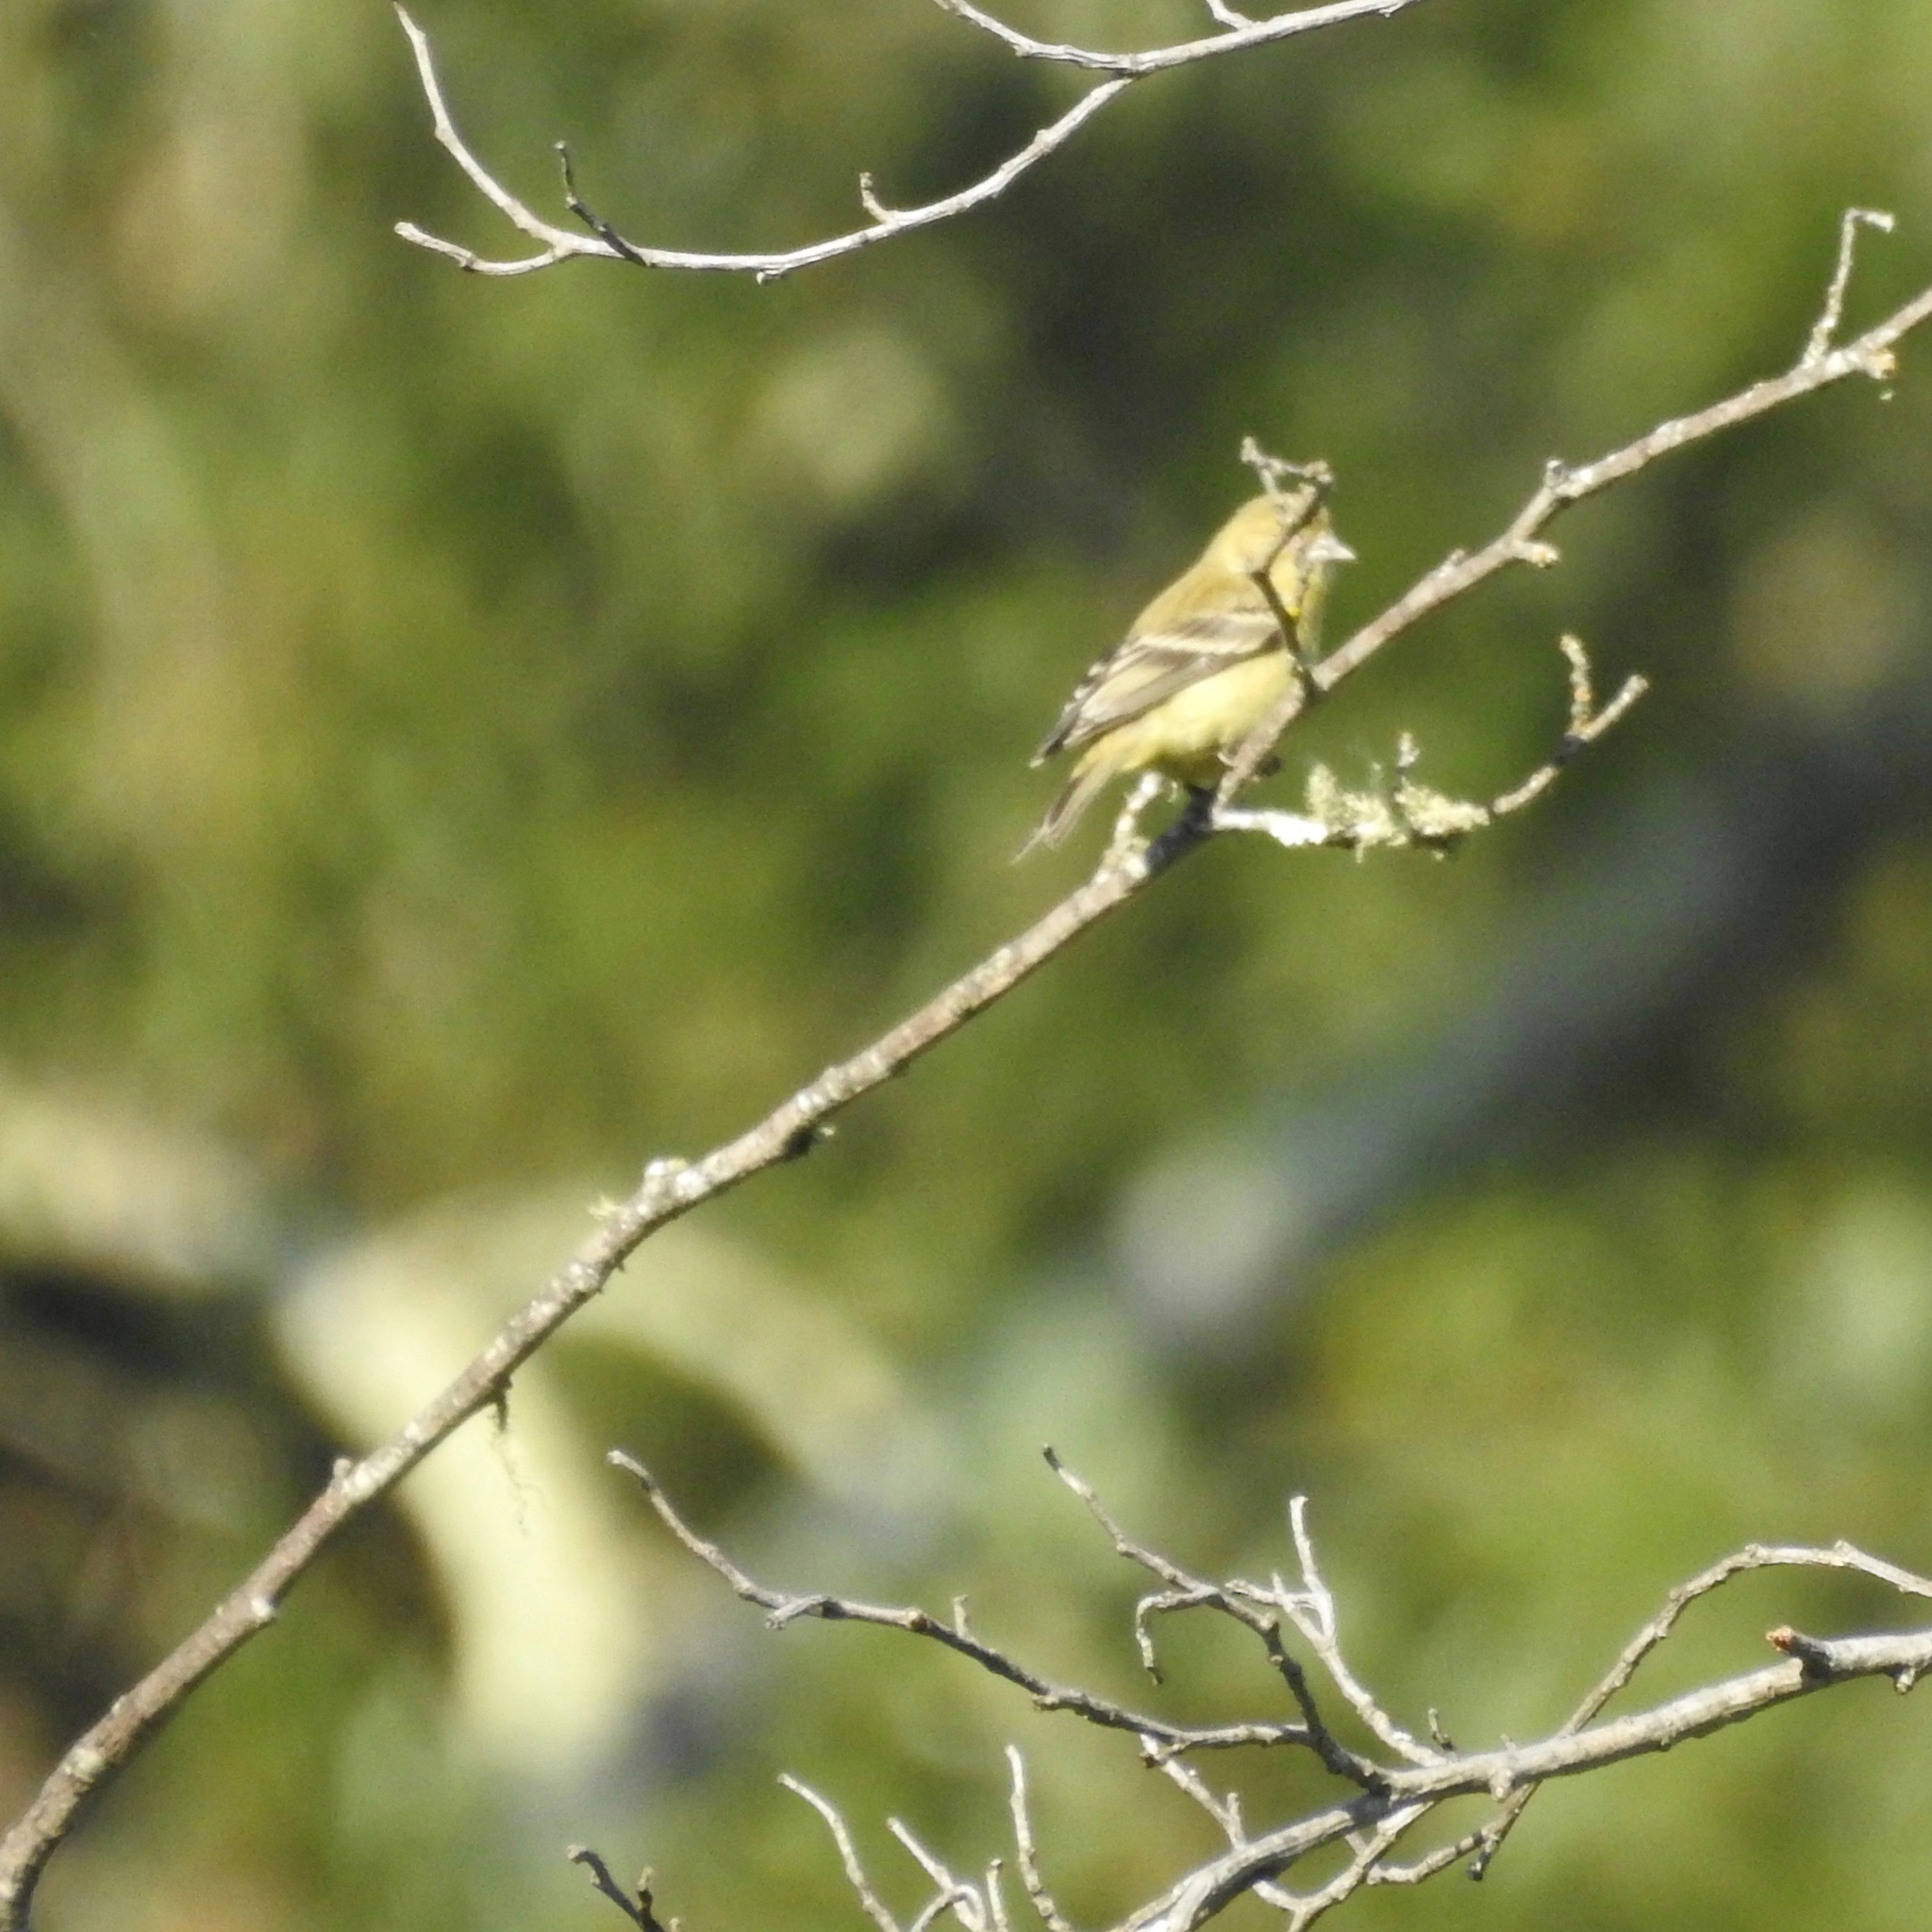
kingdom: Animalia
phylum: Chordata
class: Aves
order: Passeriformes
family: Fringillidae
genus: Spinus
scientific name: Spinus psaltria
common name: Lesser goldfinch
